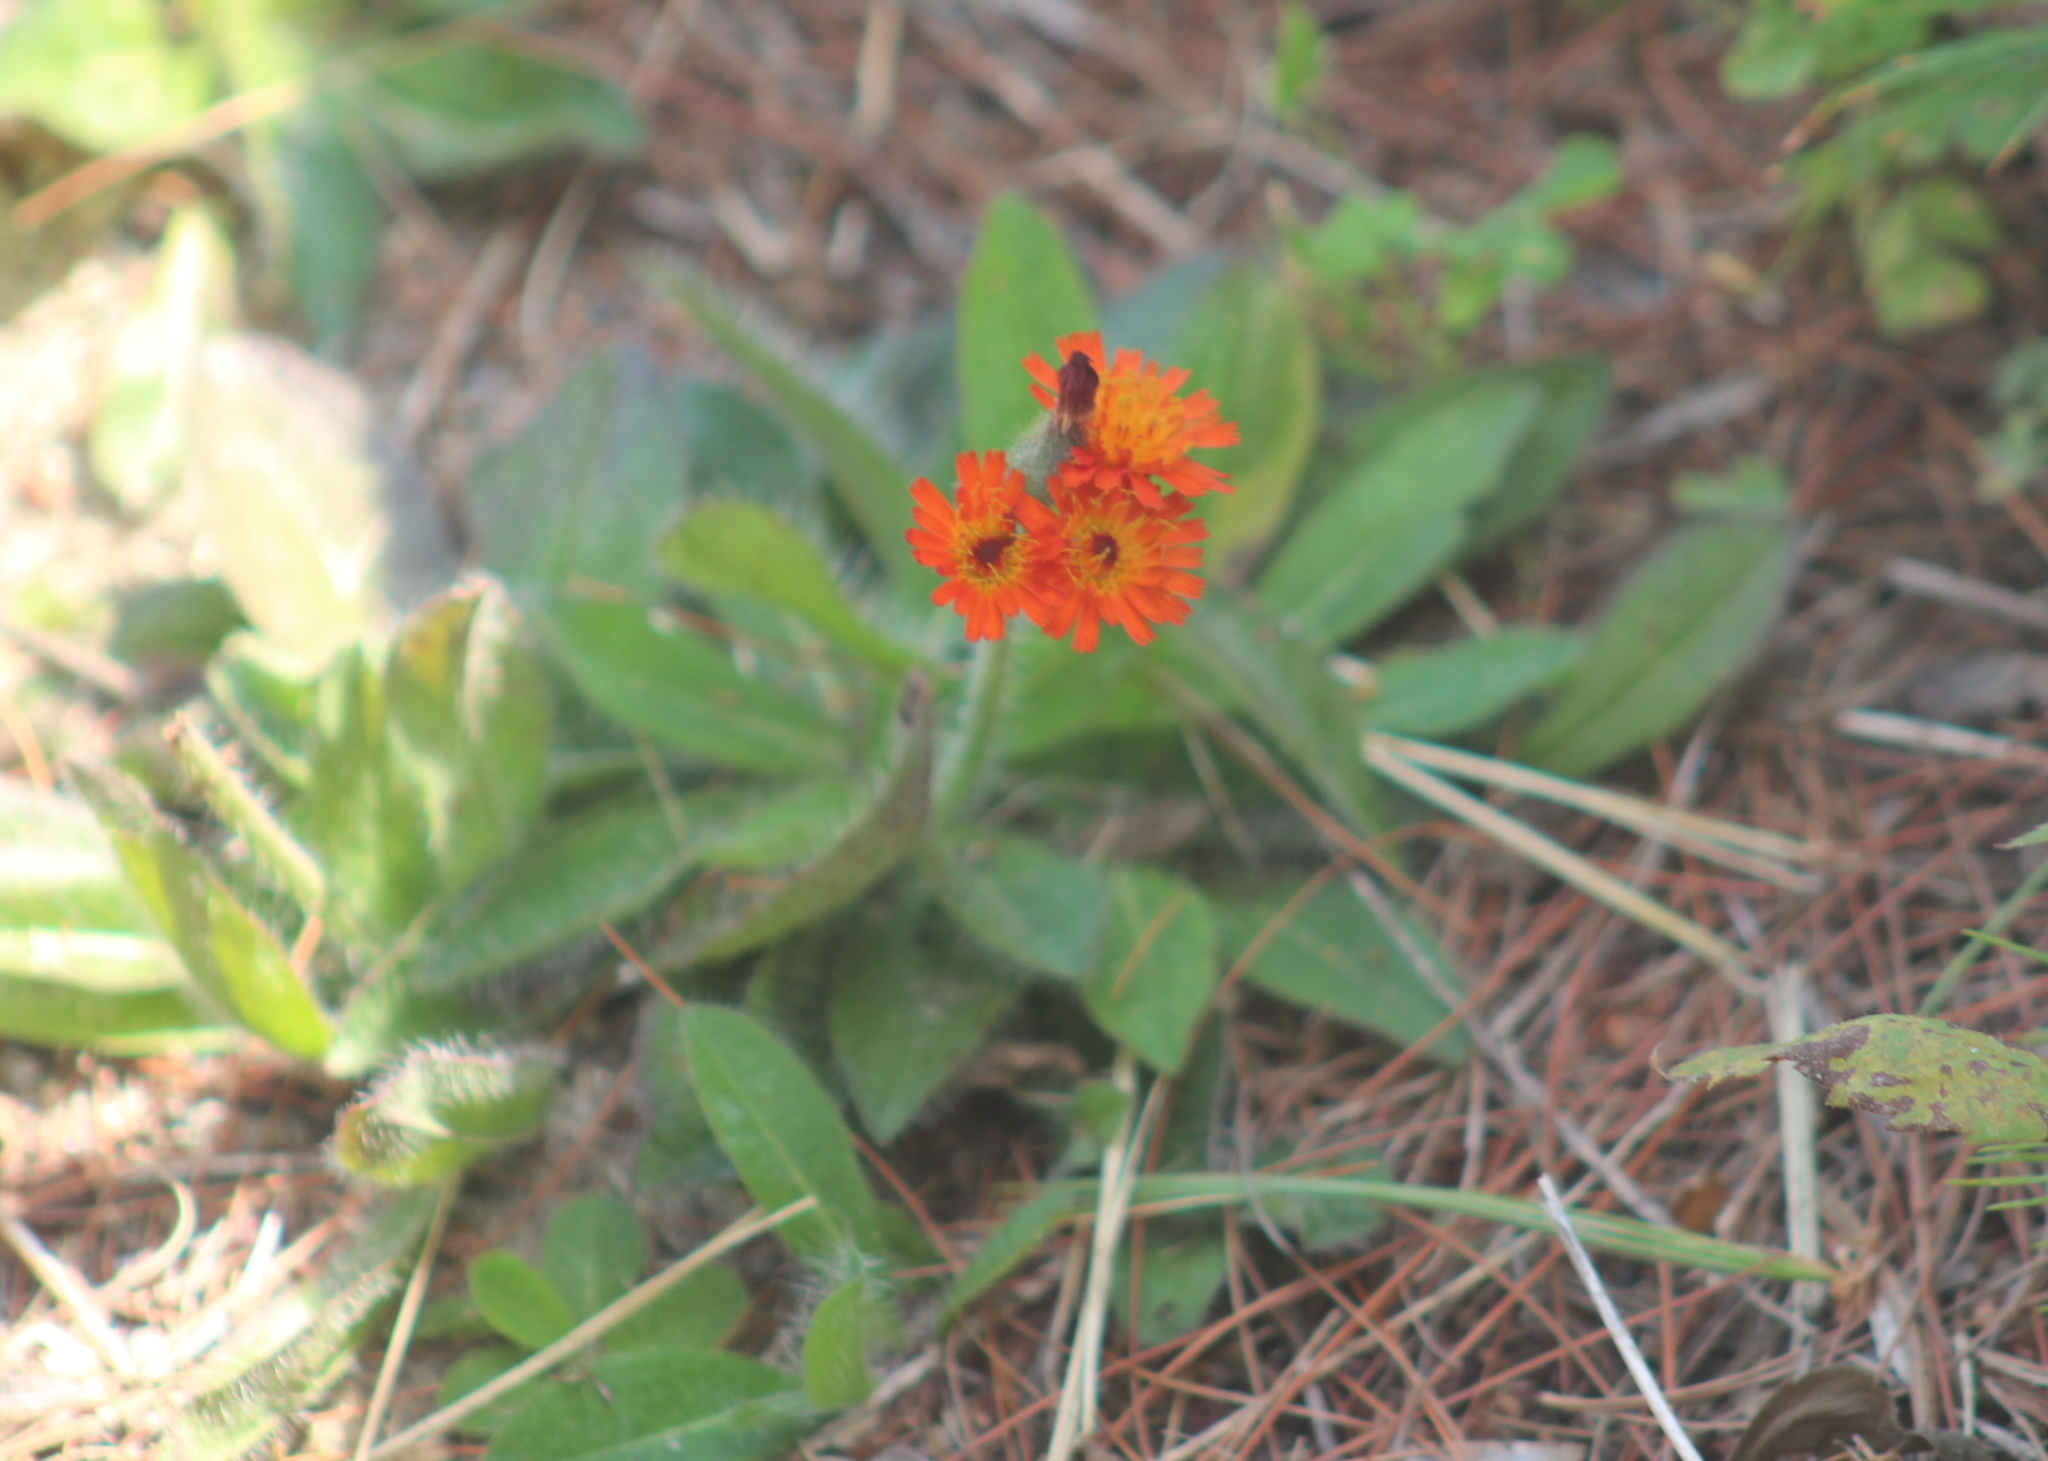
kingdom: Plantae
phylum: Tracheophyta
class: Magnoliopsida
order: Asterales
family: Asteraceae
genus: Pilosella
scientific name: Pilosella aurantiaca
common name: Fox-and-cubs
